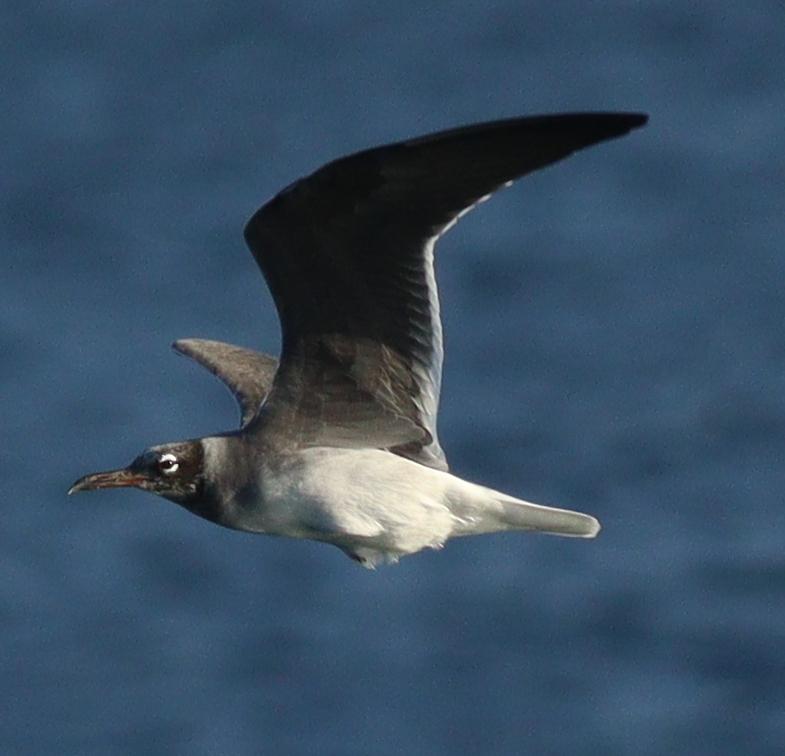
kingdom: Animalia
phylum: Chordata
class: Aves
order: Charadriiformes
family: Laridae
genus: Ichthyaetus
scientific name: Ichthyaetus leucophthalmus
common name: White-eyed gull
